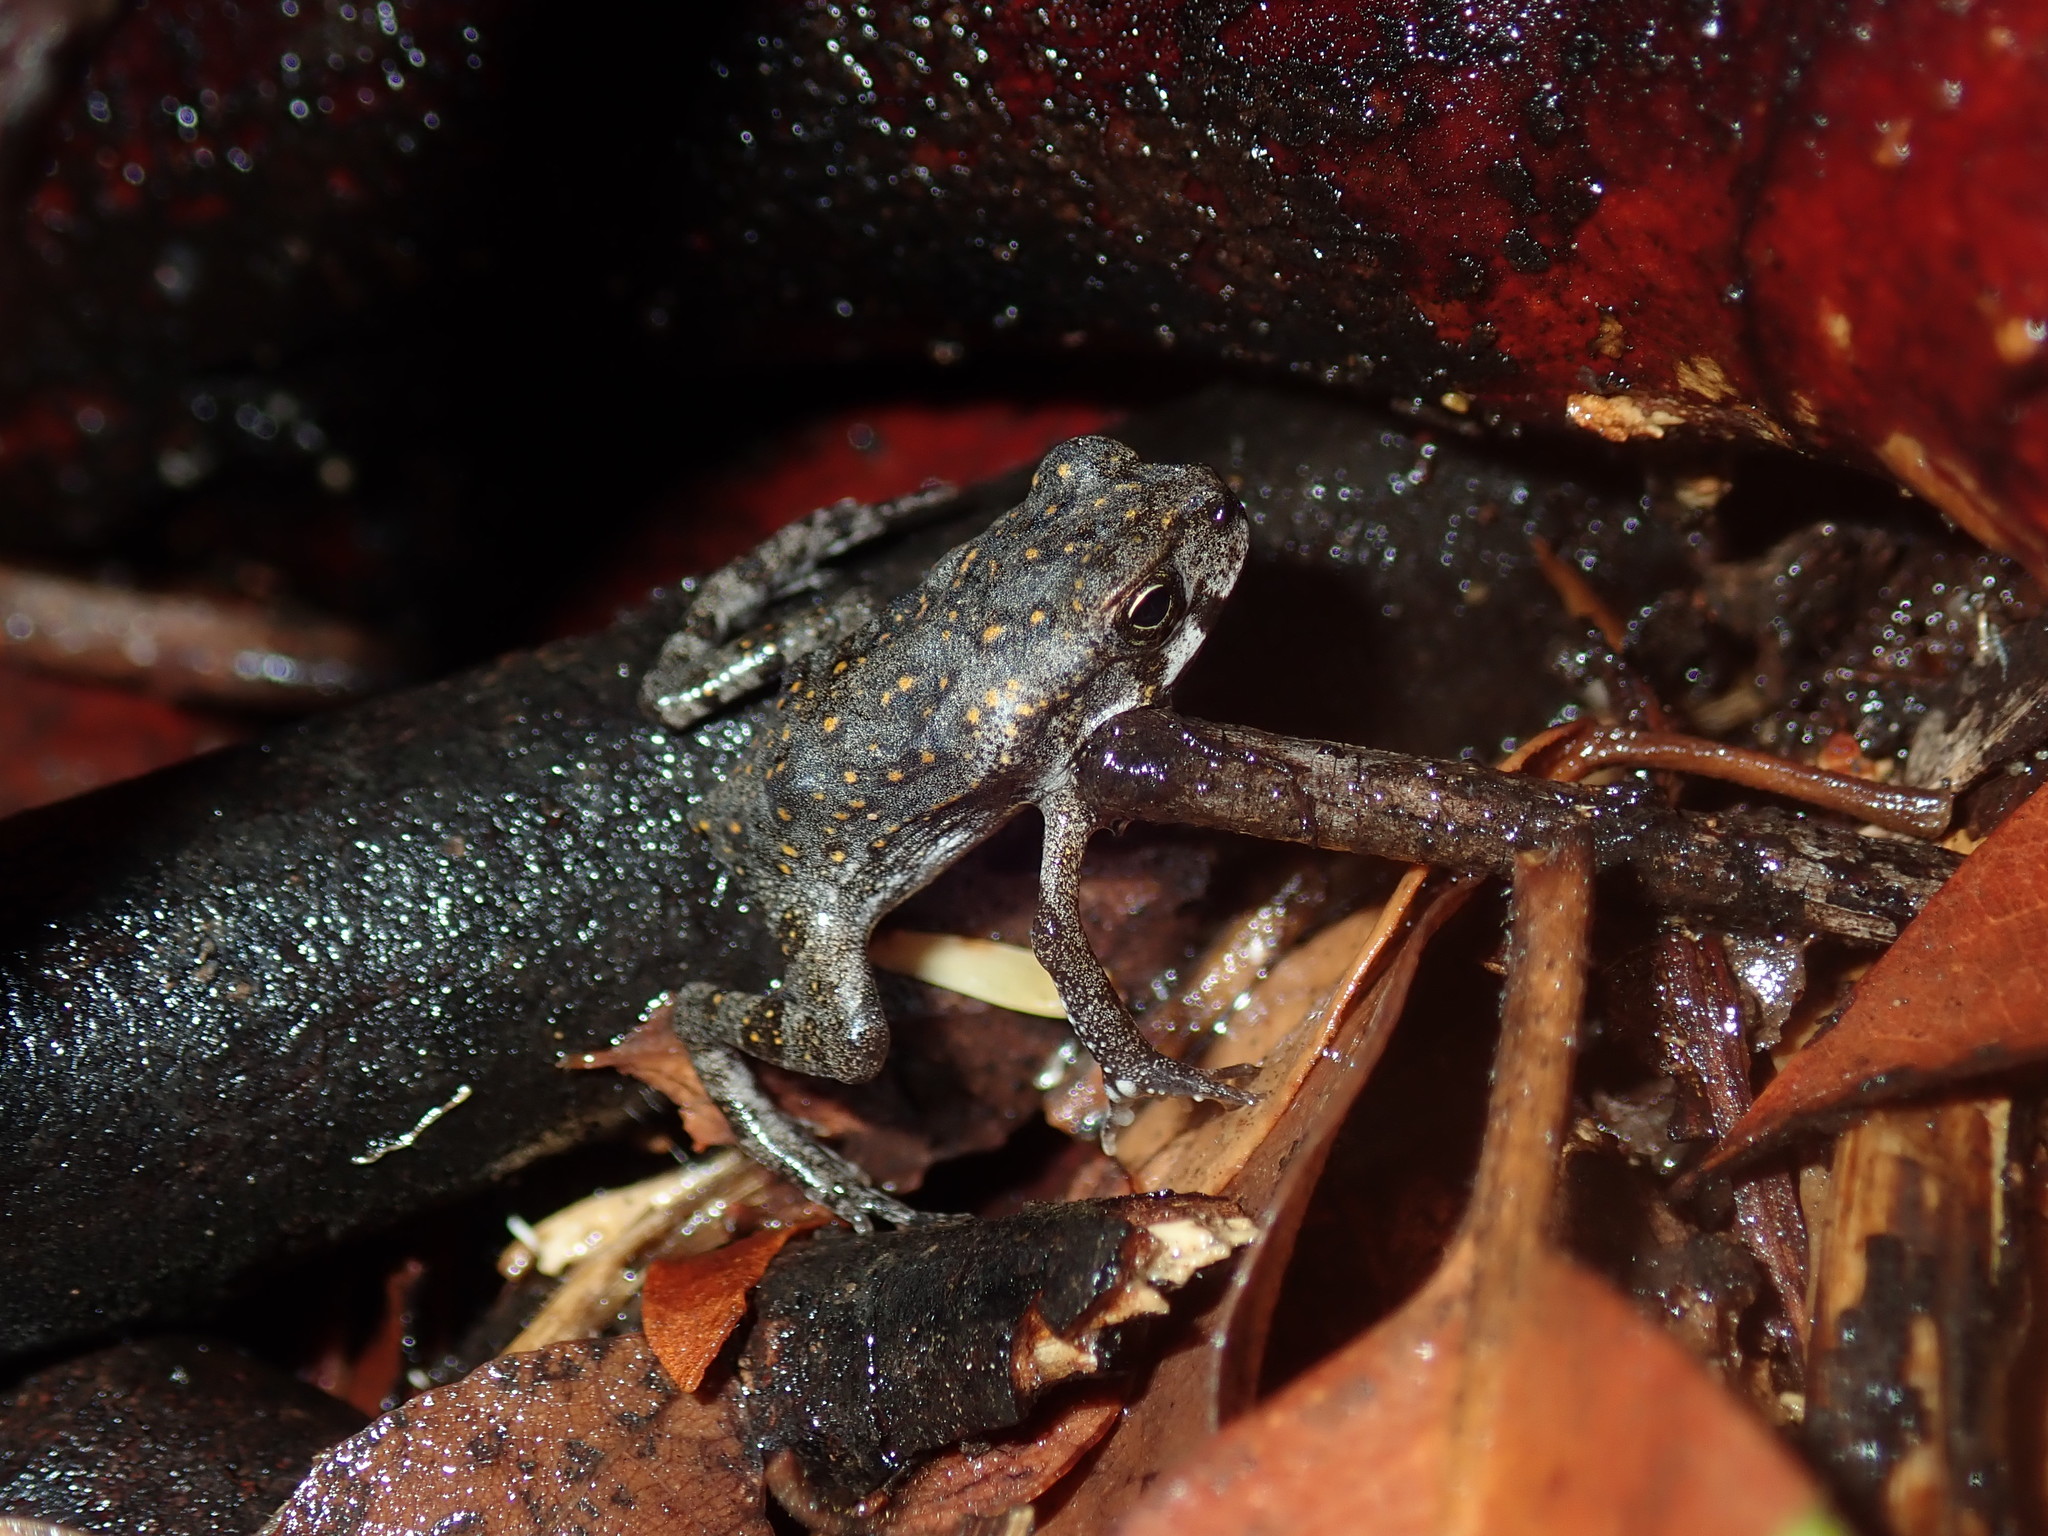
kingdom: Animalia
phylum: Chordata
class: Amphibia
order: Anura
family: Bufonidae
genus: Rhinella
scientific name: Rhinella marina
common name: Cane toad
